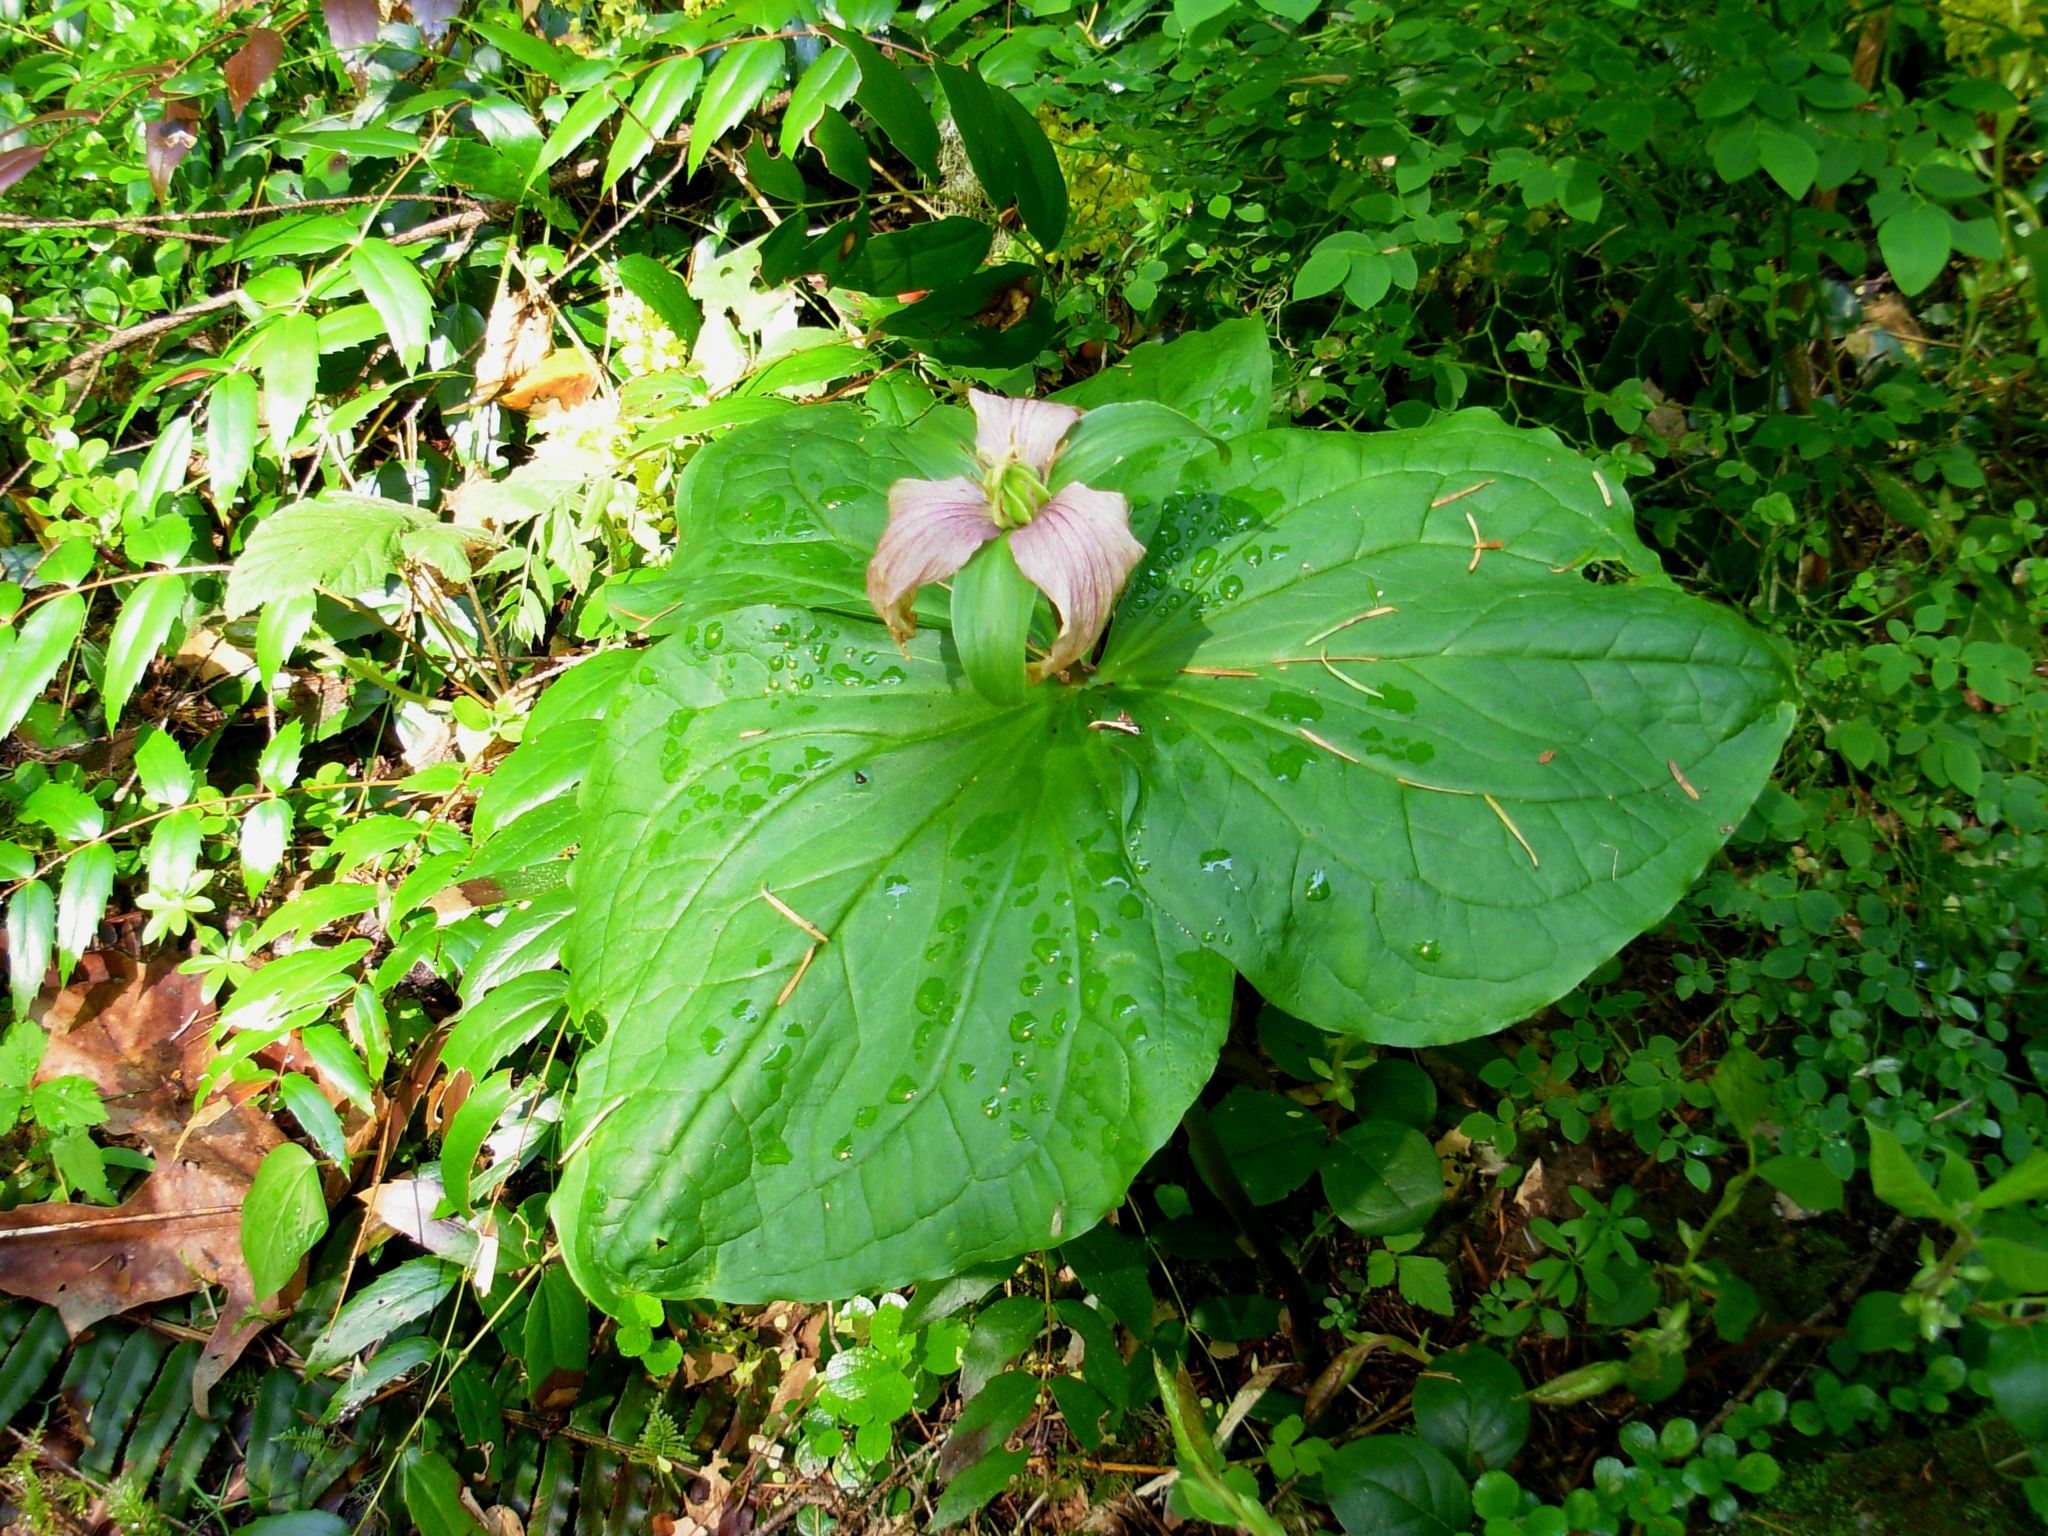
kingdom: Plantae
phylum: Tracheophyta
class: Liliopsida
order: Liliales
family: Melanthiaceae
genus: Trillium
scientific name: Trillium ovatum
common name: Pacific trillium
